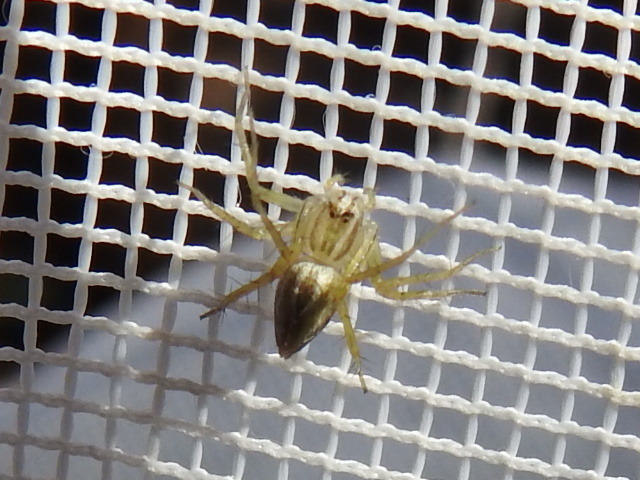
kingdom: Animalia
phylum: Arthropoda
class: Arachnida
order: Araneae
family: Oxyopidae
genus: Oxyopes
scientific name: Oxyopes salticus
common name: Lynx spiders
